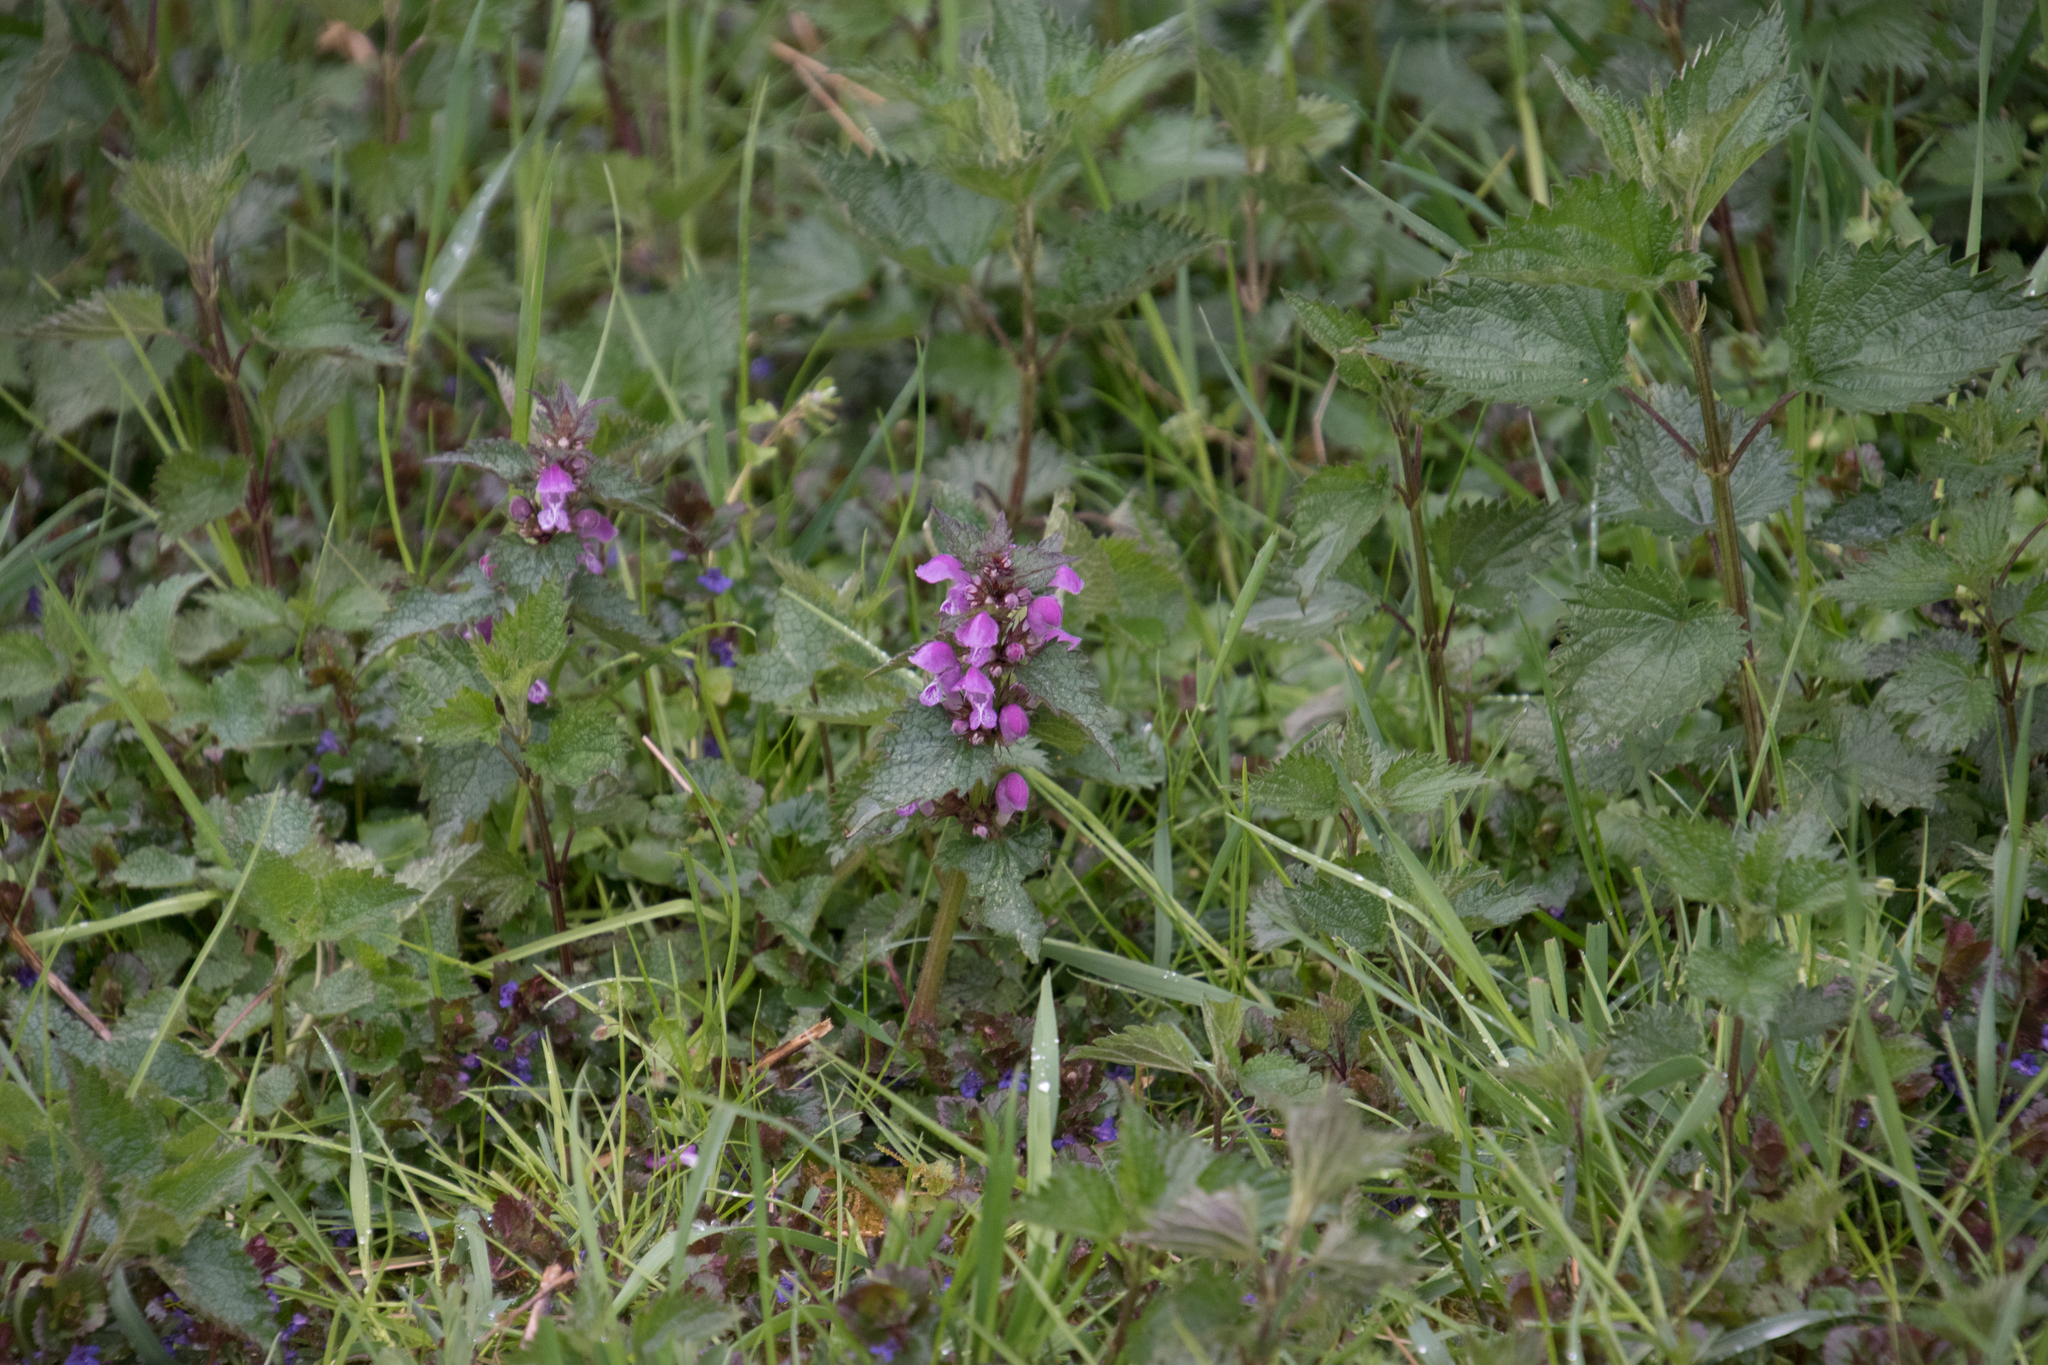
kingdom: Plantae
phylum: Tracheophyta
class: Magnoliopsida
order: Lamiales
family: Lamiaceae
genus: Lamium
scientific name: Lamium maculatum
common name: Spotted dead-nettle
